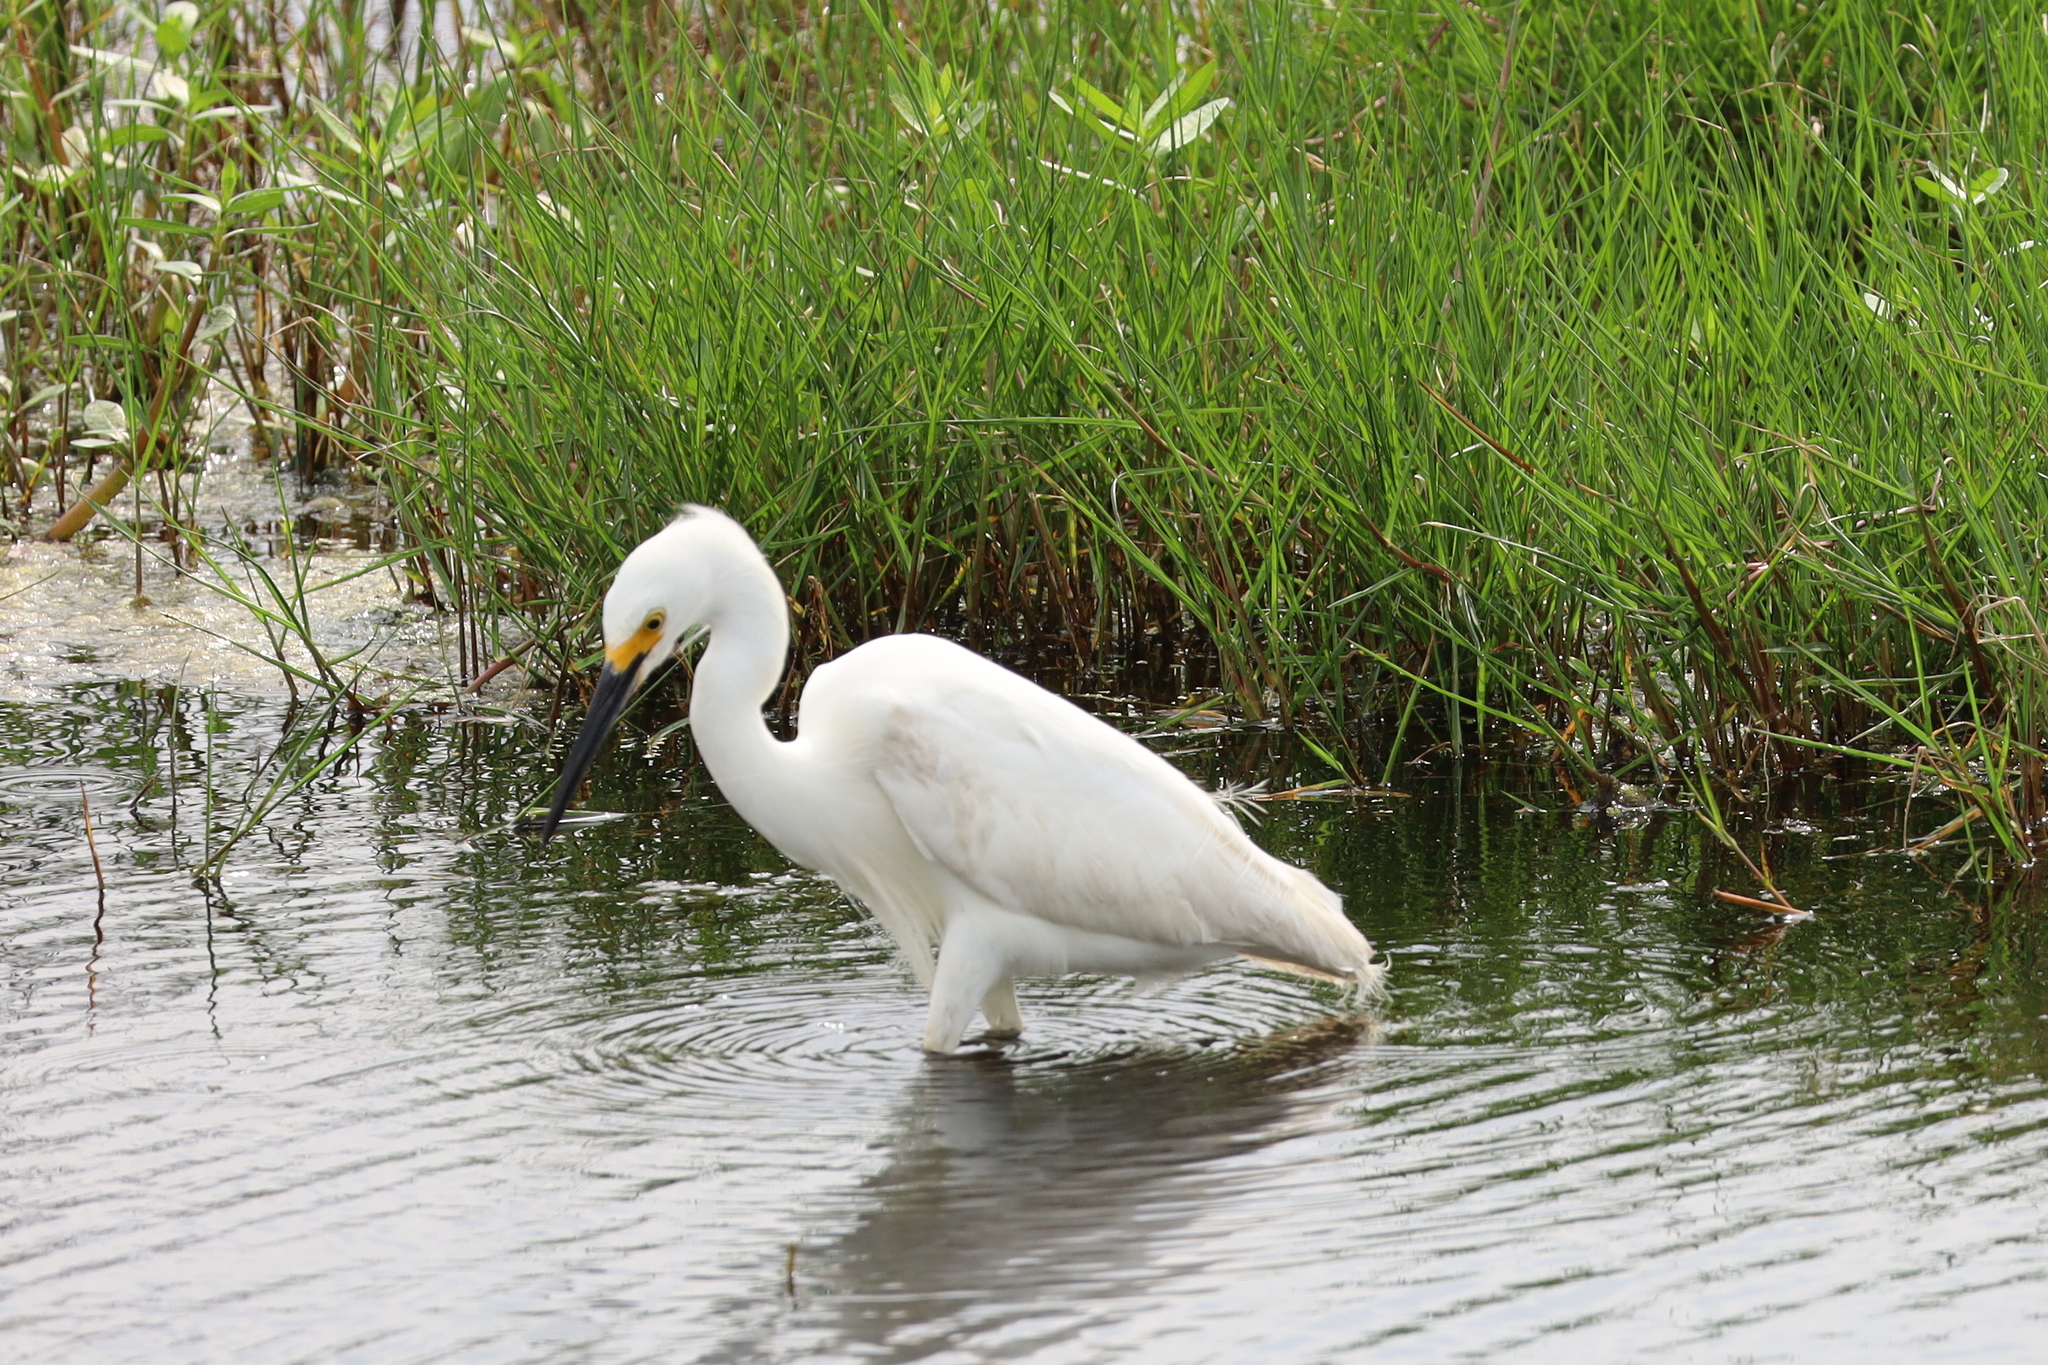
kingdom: Animalia
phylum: Chordata
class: Aves
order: Pelecaniformes
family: Ardeidae
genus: Egretta
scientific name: Egretta thula
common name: Snowy egret
